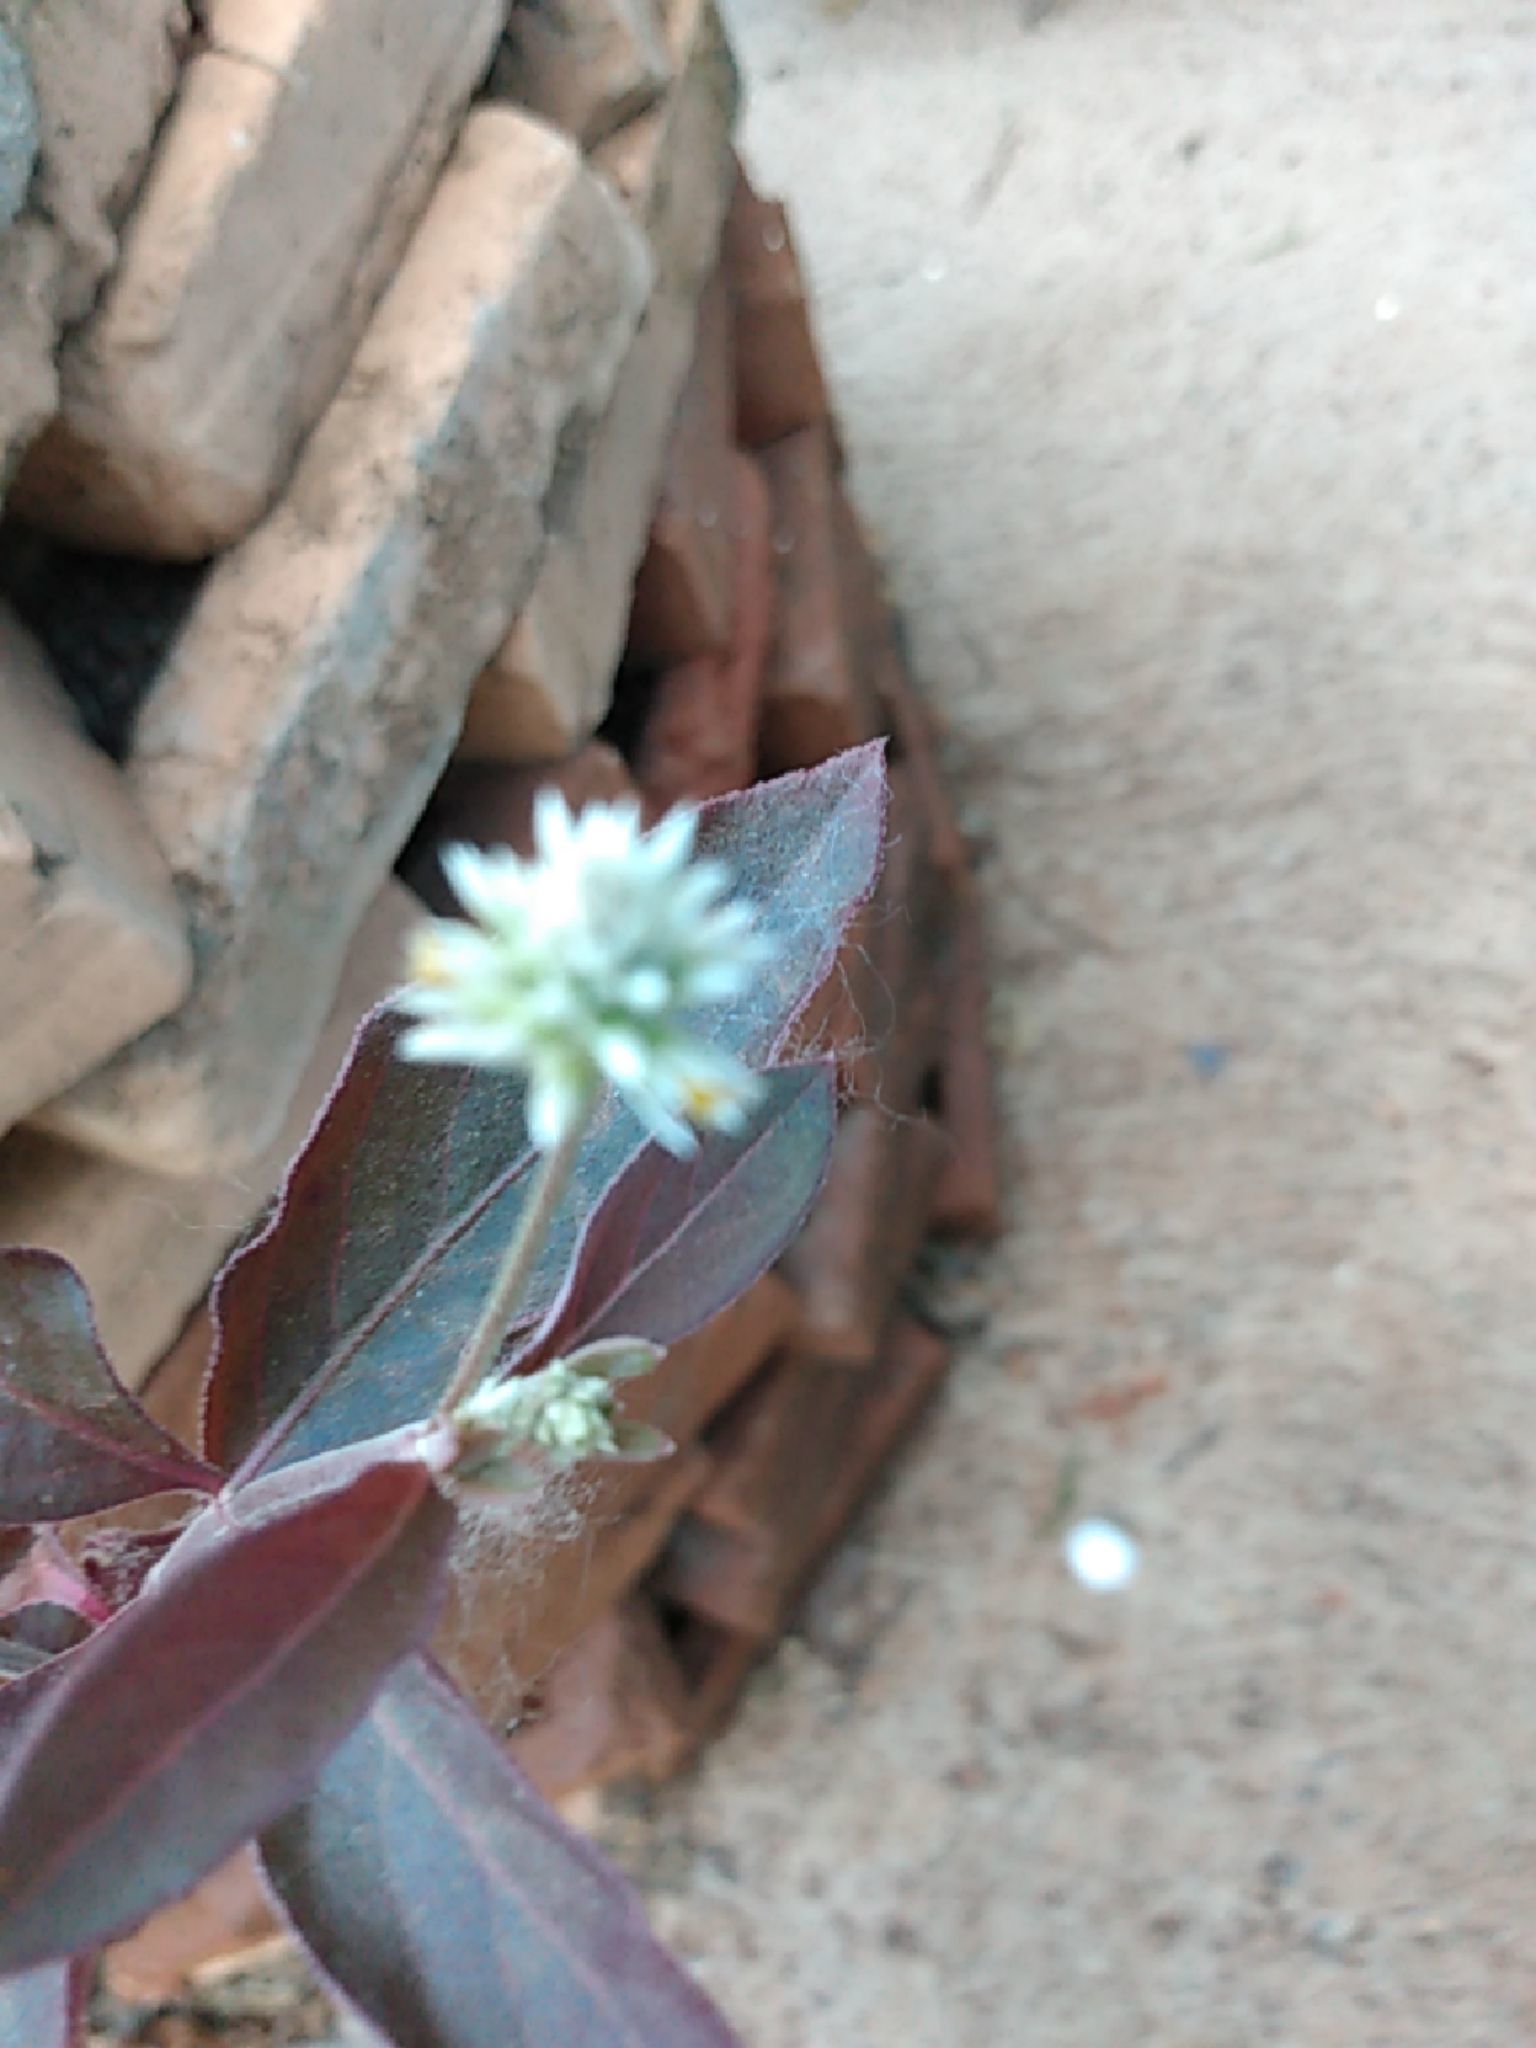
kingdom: Plantae
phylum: Tracheophyta
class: Magnoliopsida
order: Caryophyllales
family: Amaranthaceae
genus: Gomphrena
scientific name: Gomphrena serrata
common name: Arrasa con todo
